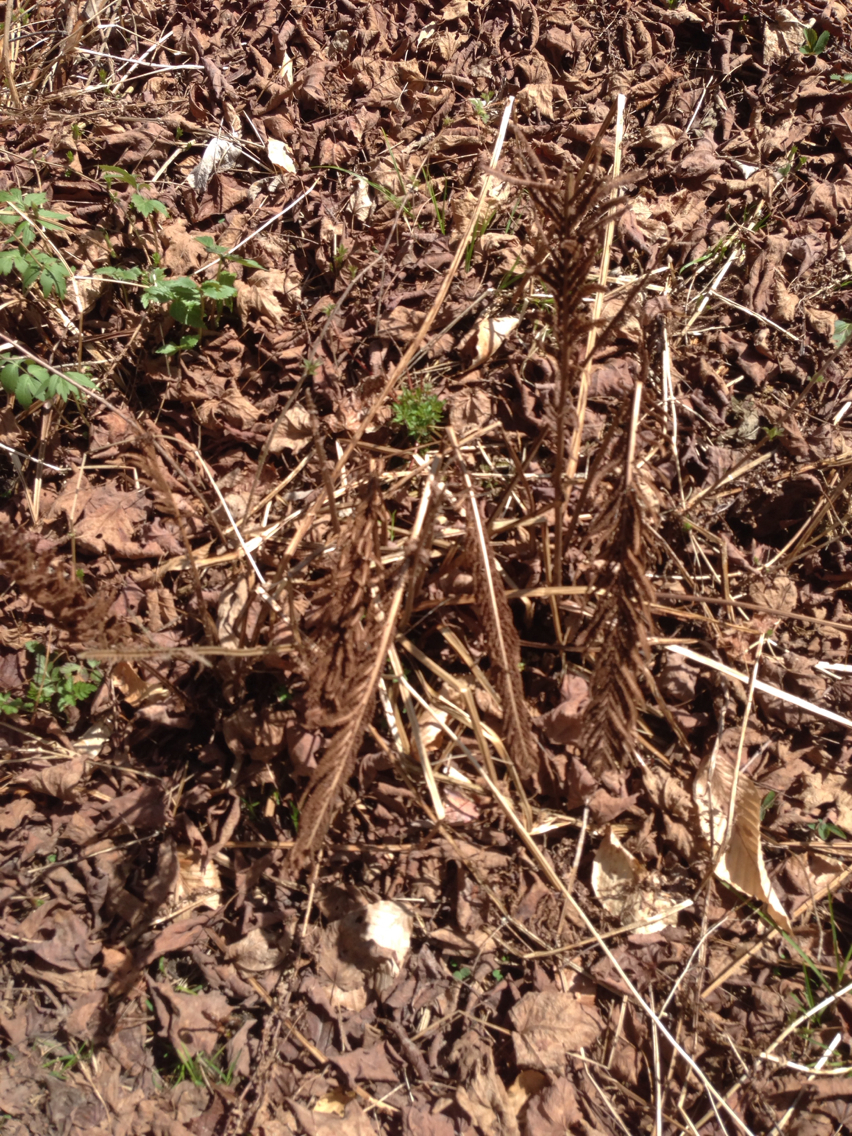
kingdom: Plantae
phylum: Tracheophyta
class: Polypodiopsida
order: Polypodiales
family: Onocleaceae
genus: Matteuccia
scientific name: Matteuccia struthiopteris
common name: Ostrich fern
